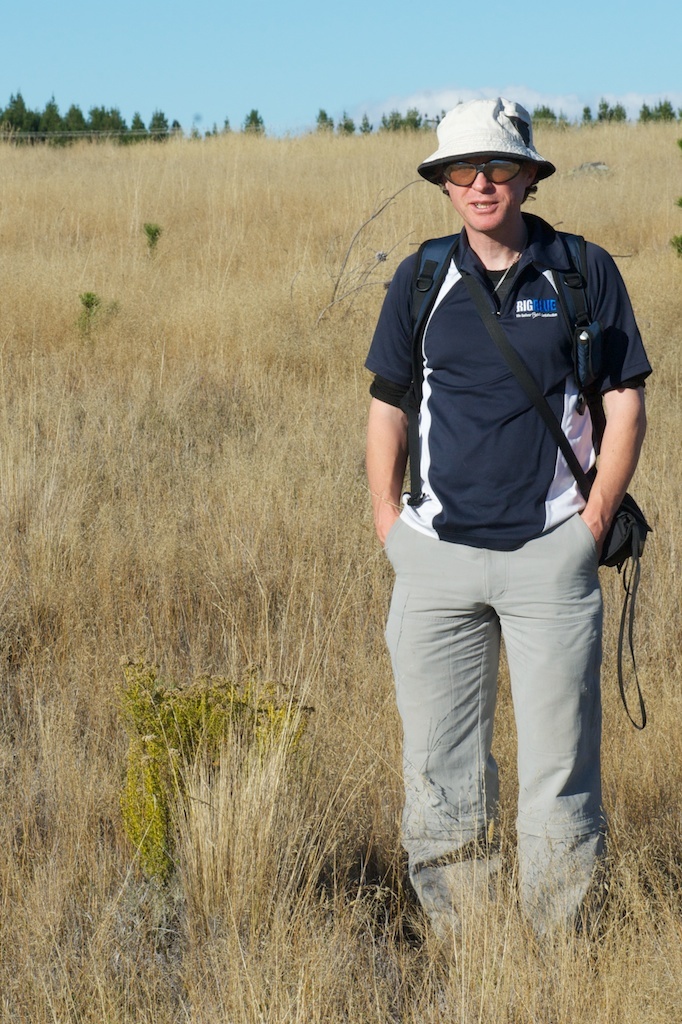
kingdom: Plantae
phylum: Tracheophyta
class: Magnoliopsida
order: Asterales
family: Asteraceae
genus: Ozothamnus
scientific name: Ozothamnus leptophyllus
